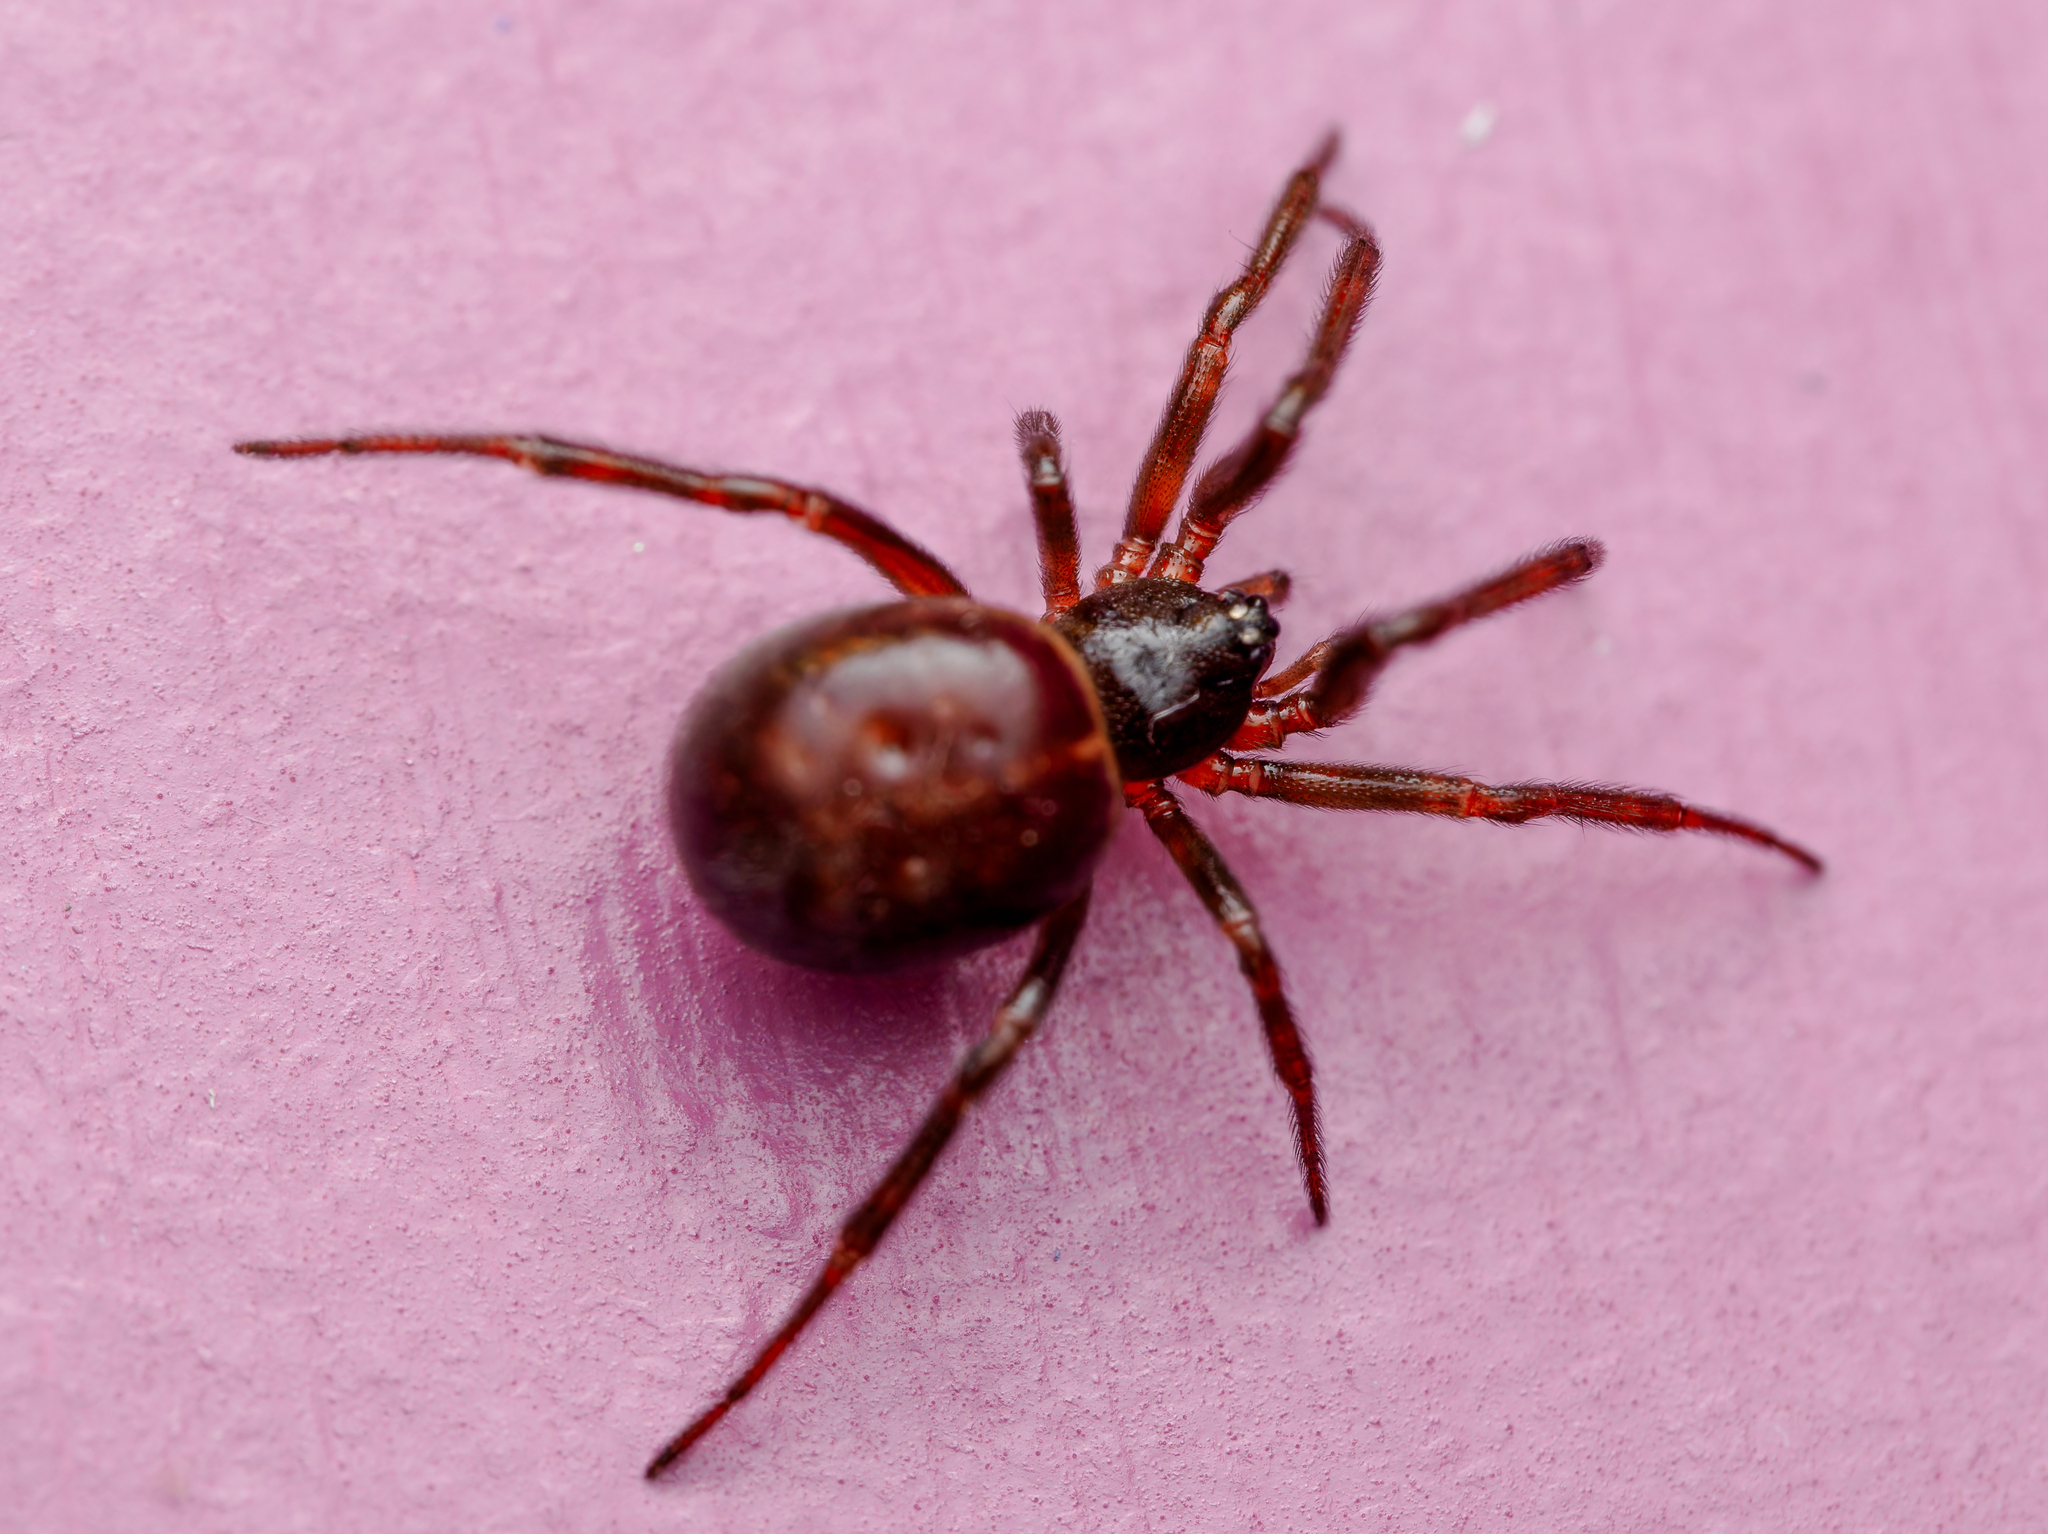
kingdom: Animalia
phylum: Arthropoda
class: Arachnida
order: Araneae
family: Theridiidae
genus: Steatoda
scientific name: Steatoda borealis
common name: Boreal combfoot
